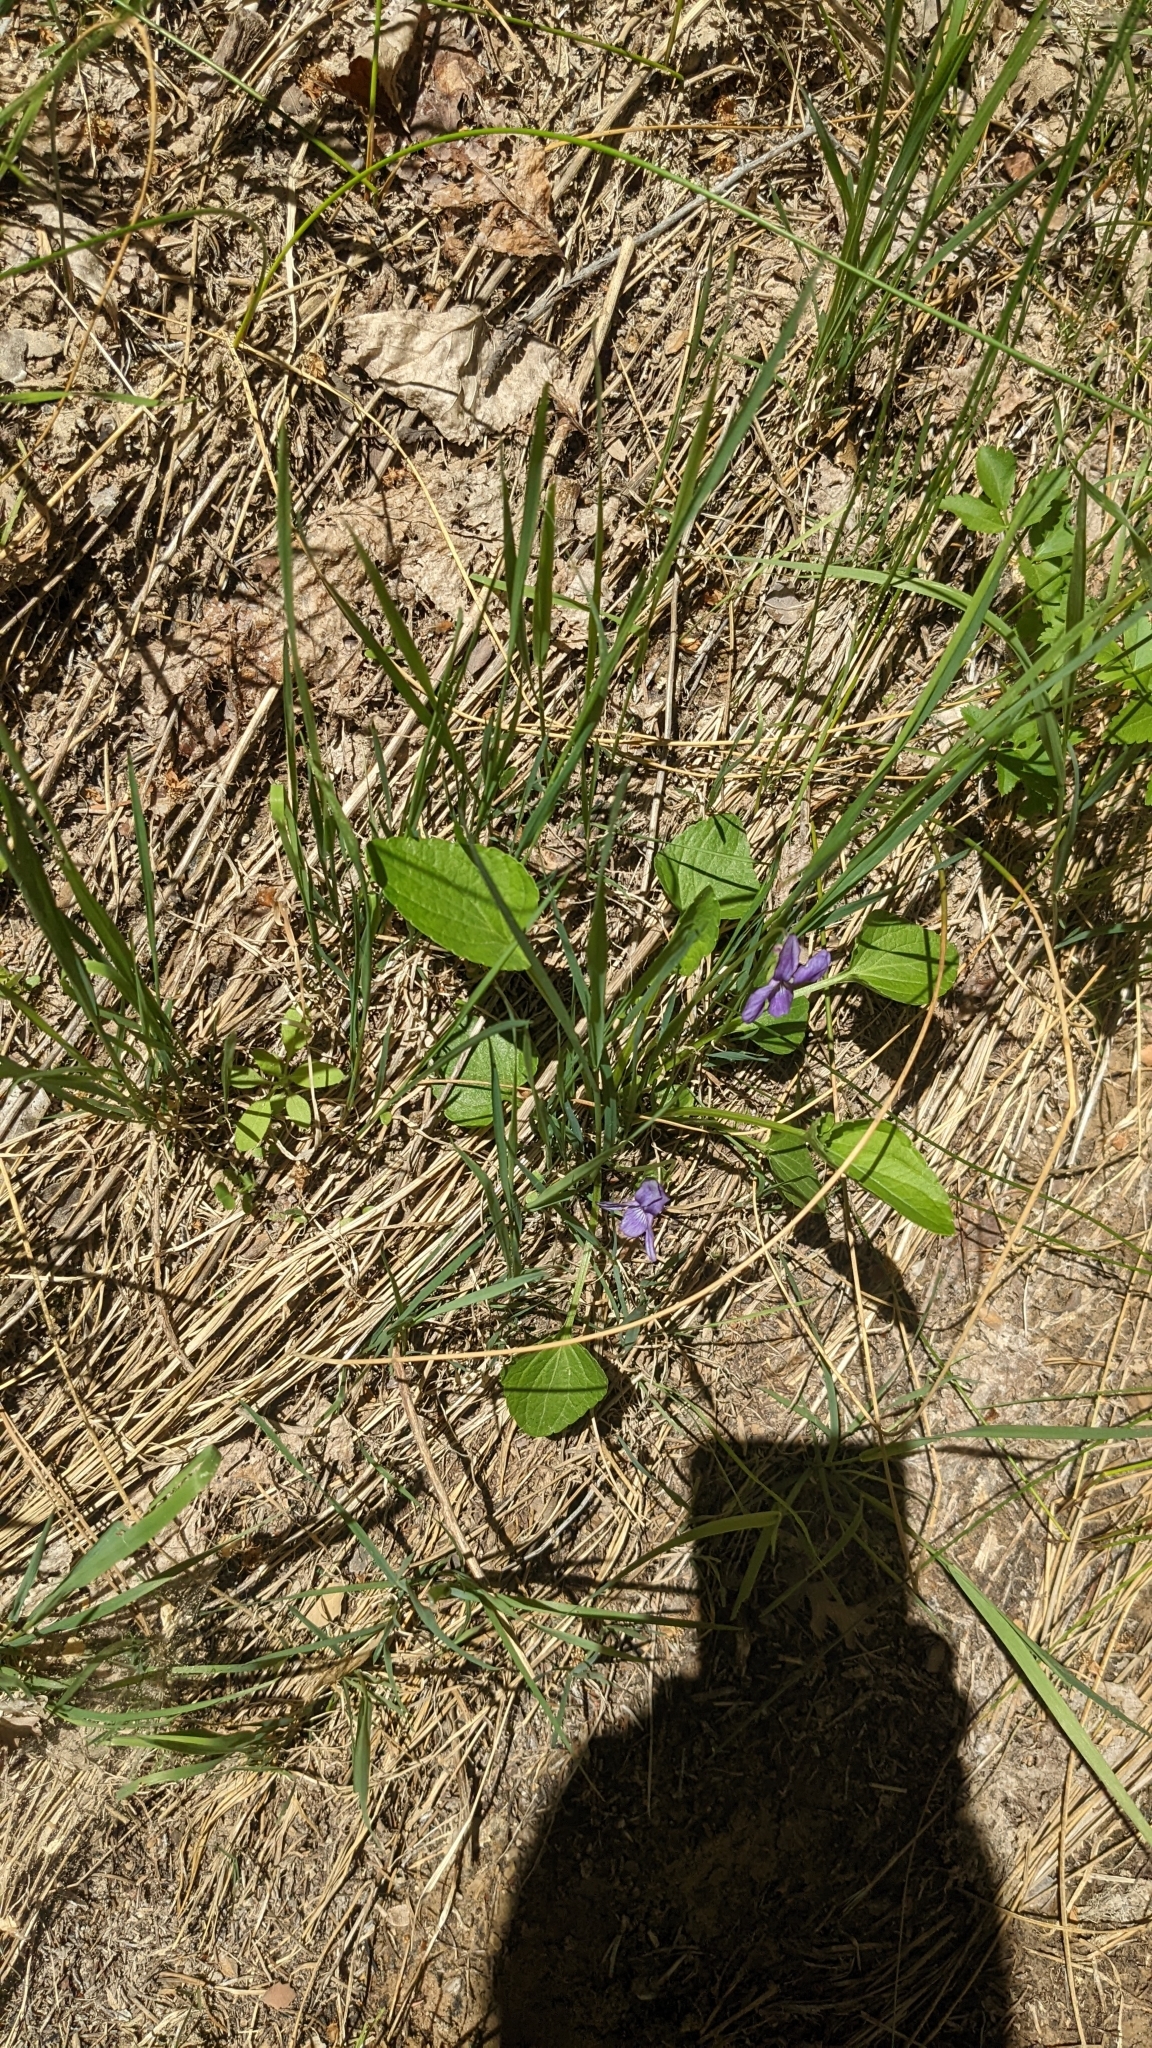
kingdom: Plantae
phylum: Tracheophyta
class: Magnoliopsida
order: Malpighiales
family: Violaceae
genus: Viola
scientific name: Viola clauseniana
